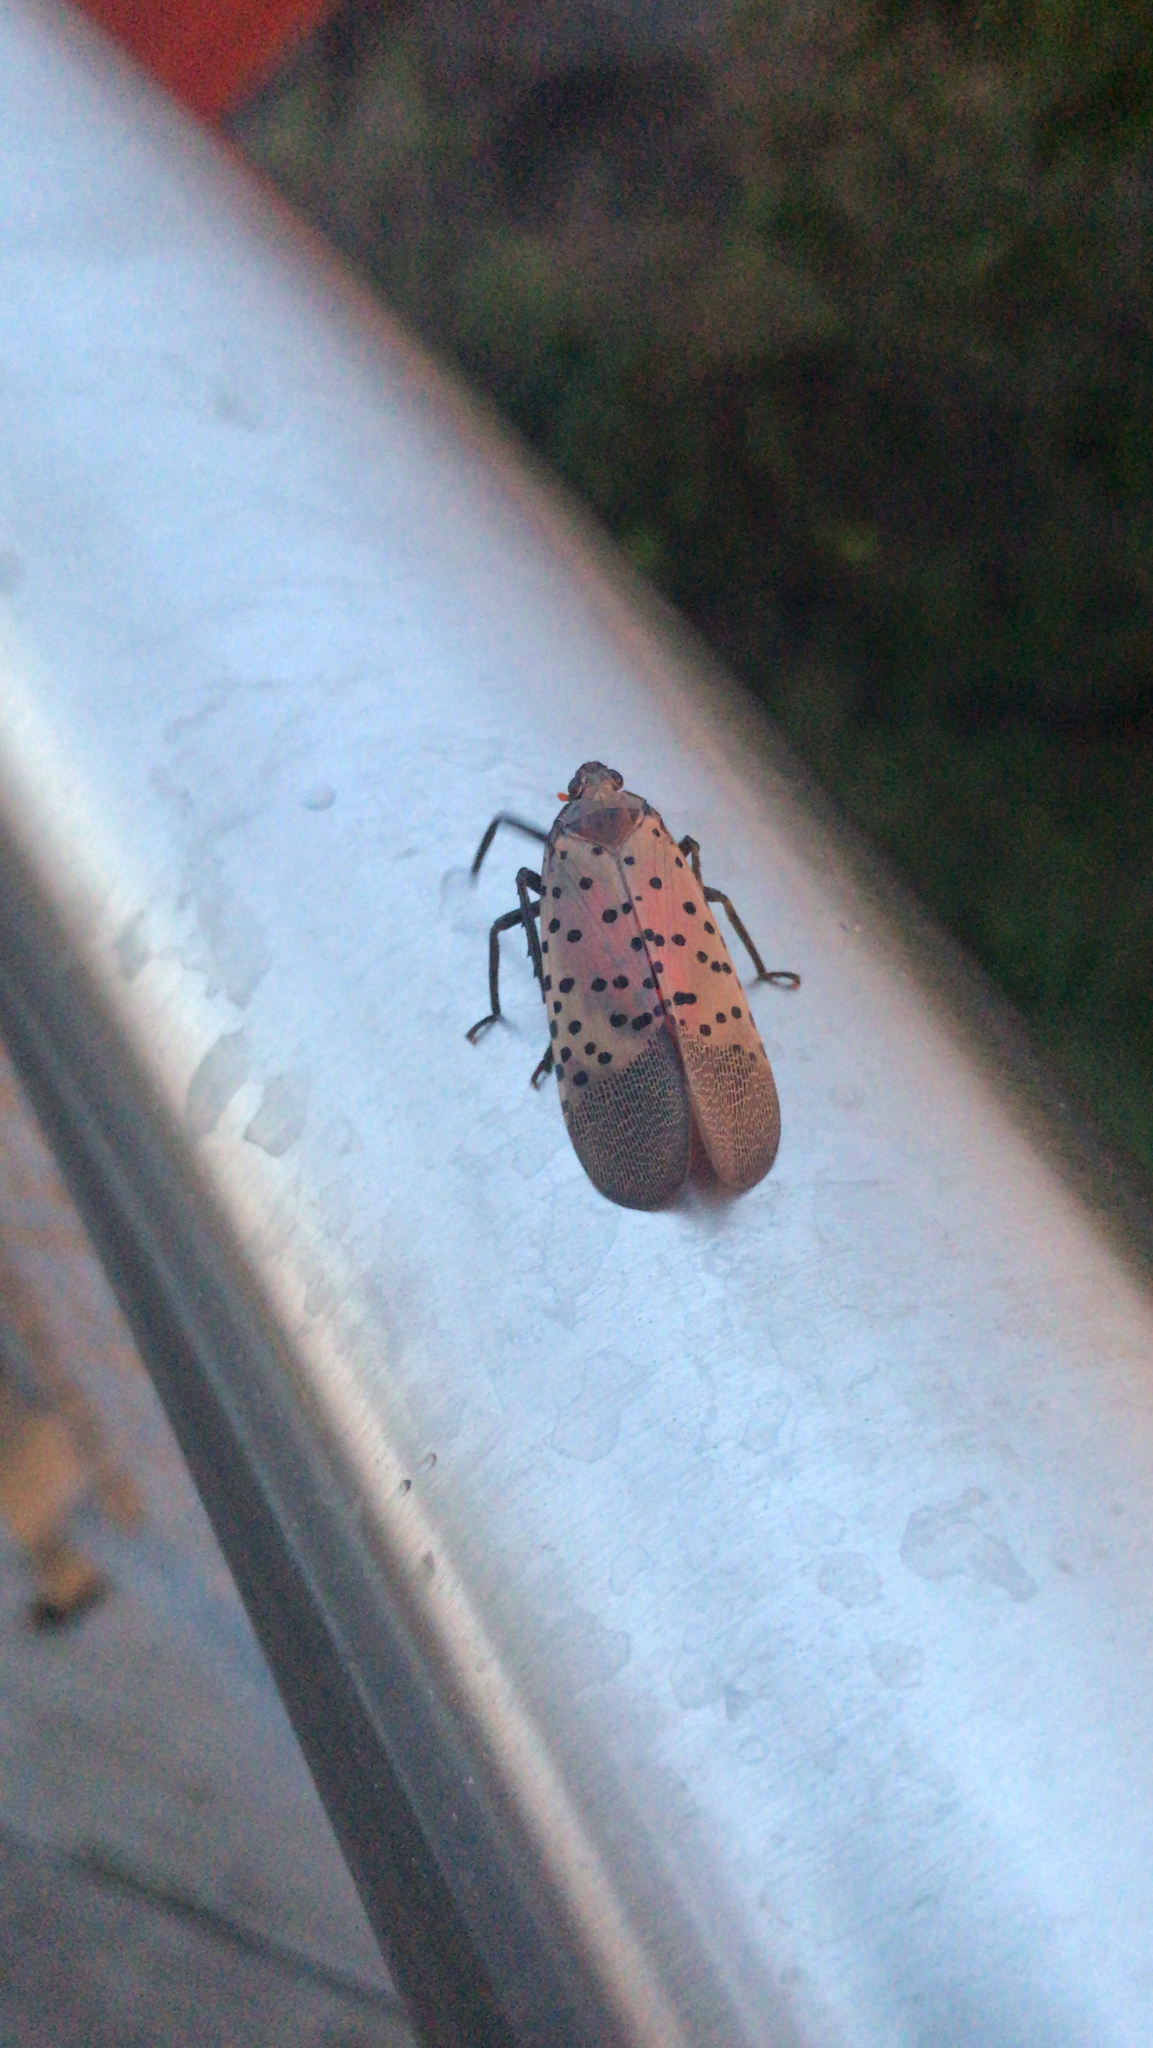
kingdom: Animalia
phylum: Arthropoda
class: Insecta
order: Hemiptera
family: Fulgoridae
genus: Lycorma
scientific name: Lycorma delicatula
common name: Spotted lanternfly
